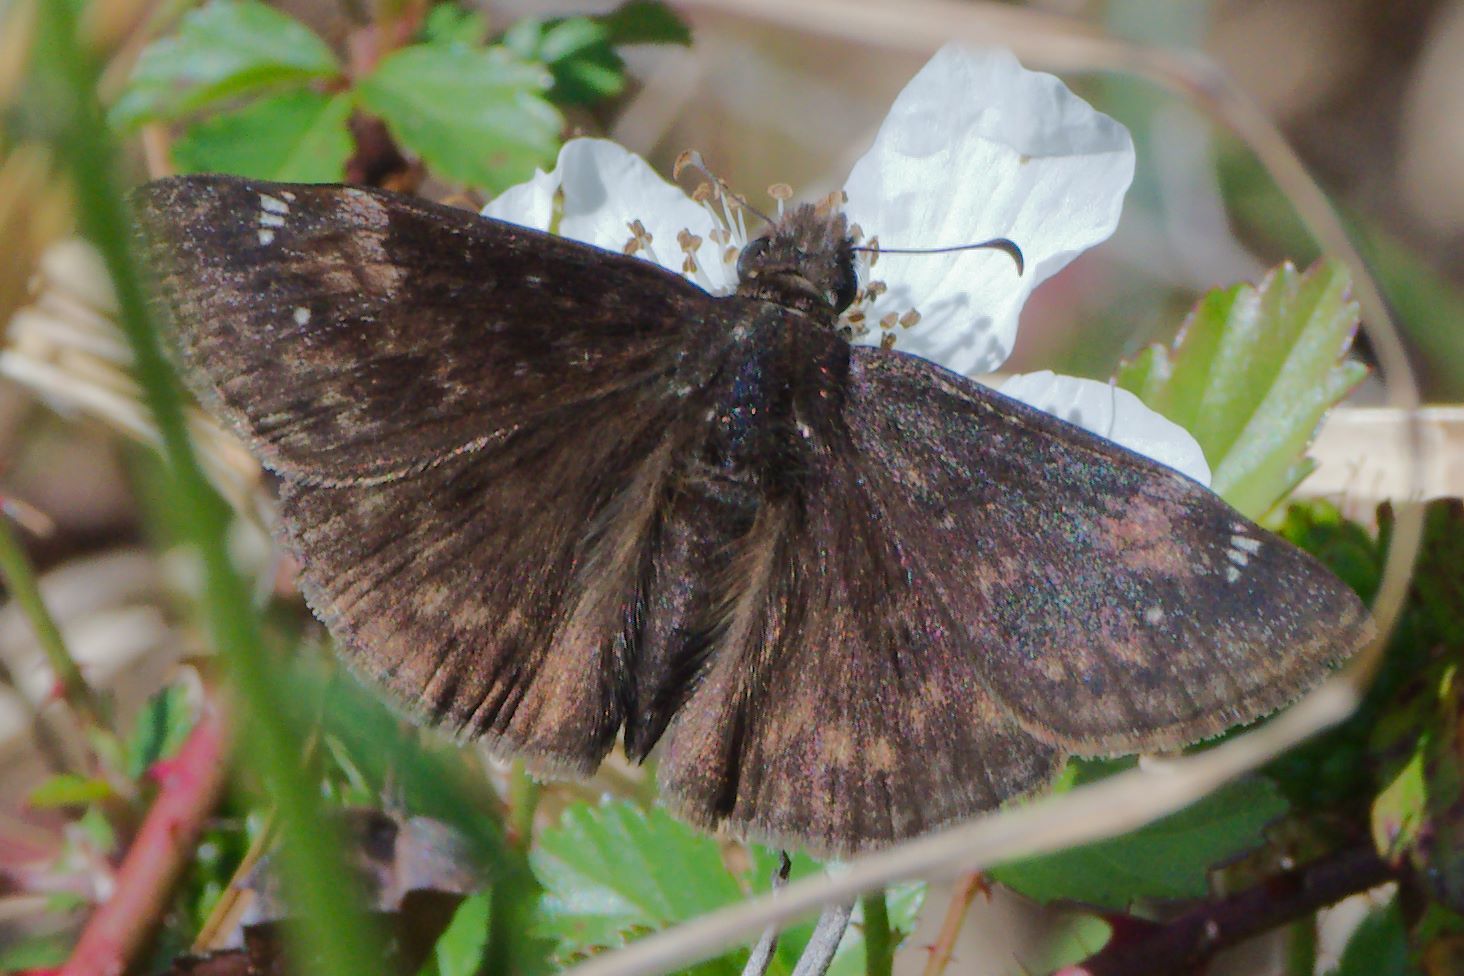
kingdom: Animalia
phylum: Arthropoda
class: Insecta
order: Lepidoptera
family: Hesperiidae
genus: Erynnis
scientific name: Erynnis zarucco
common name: Zarucco duskywing
